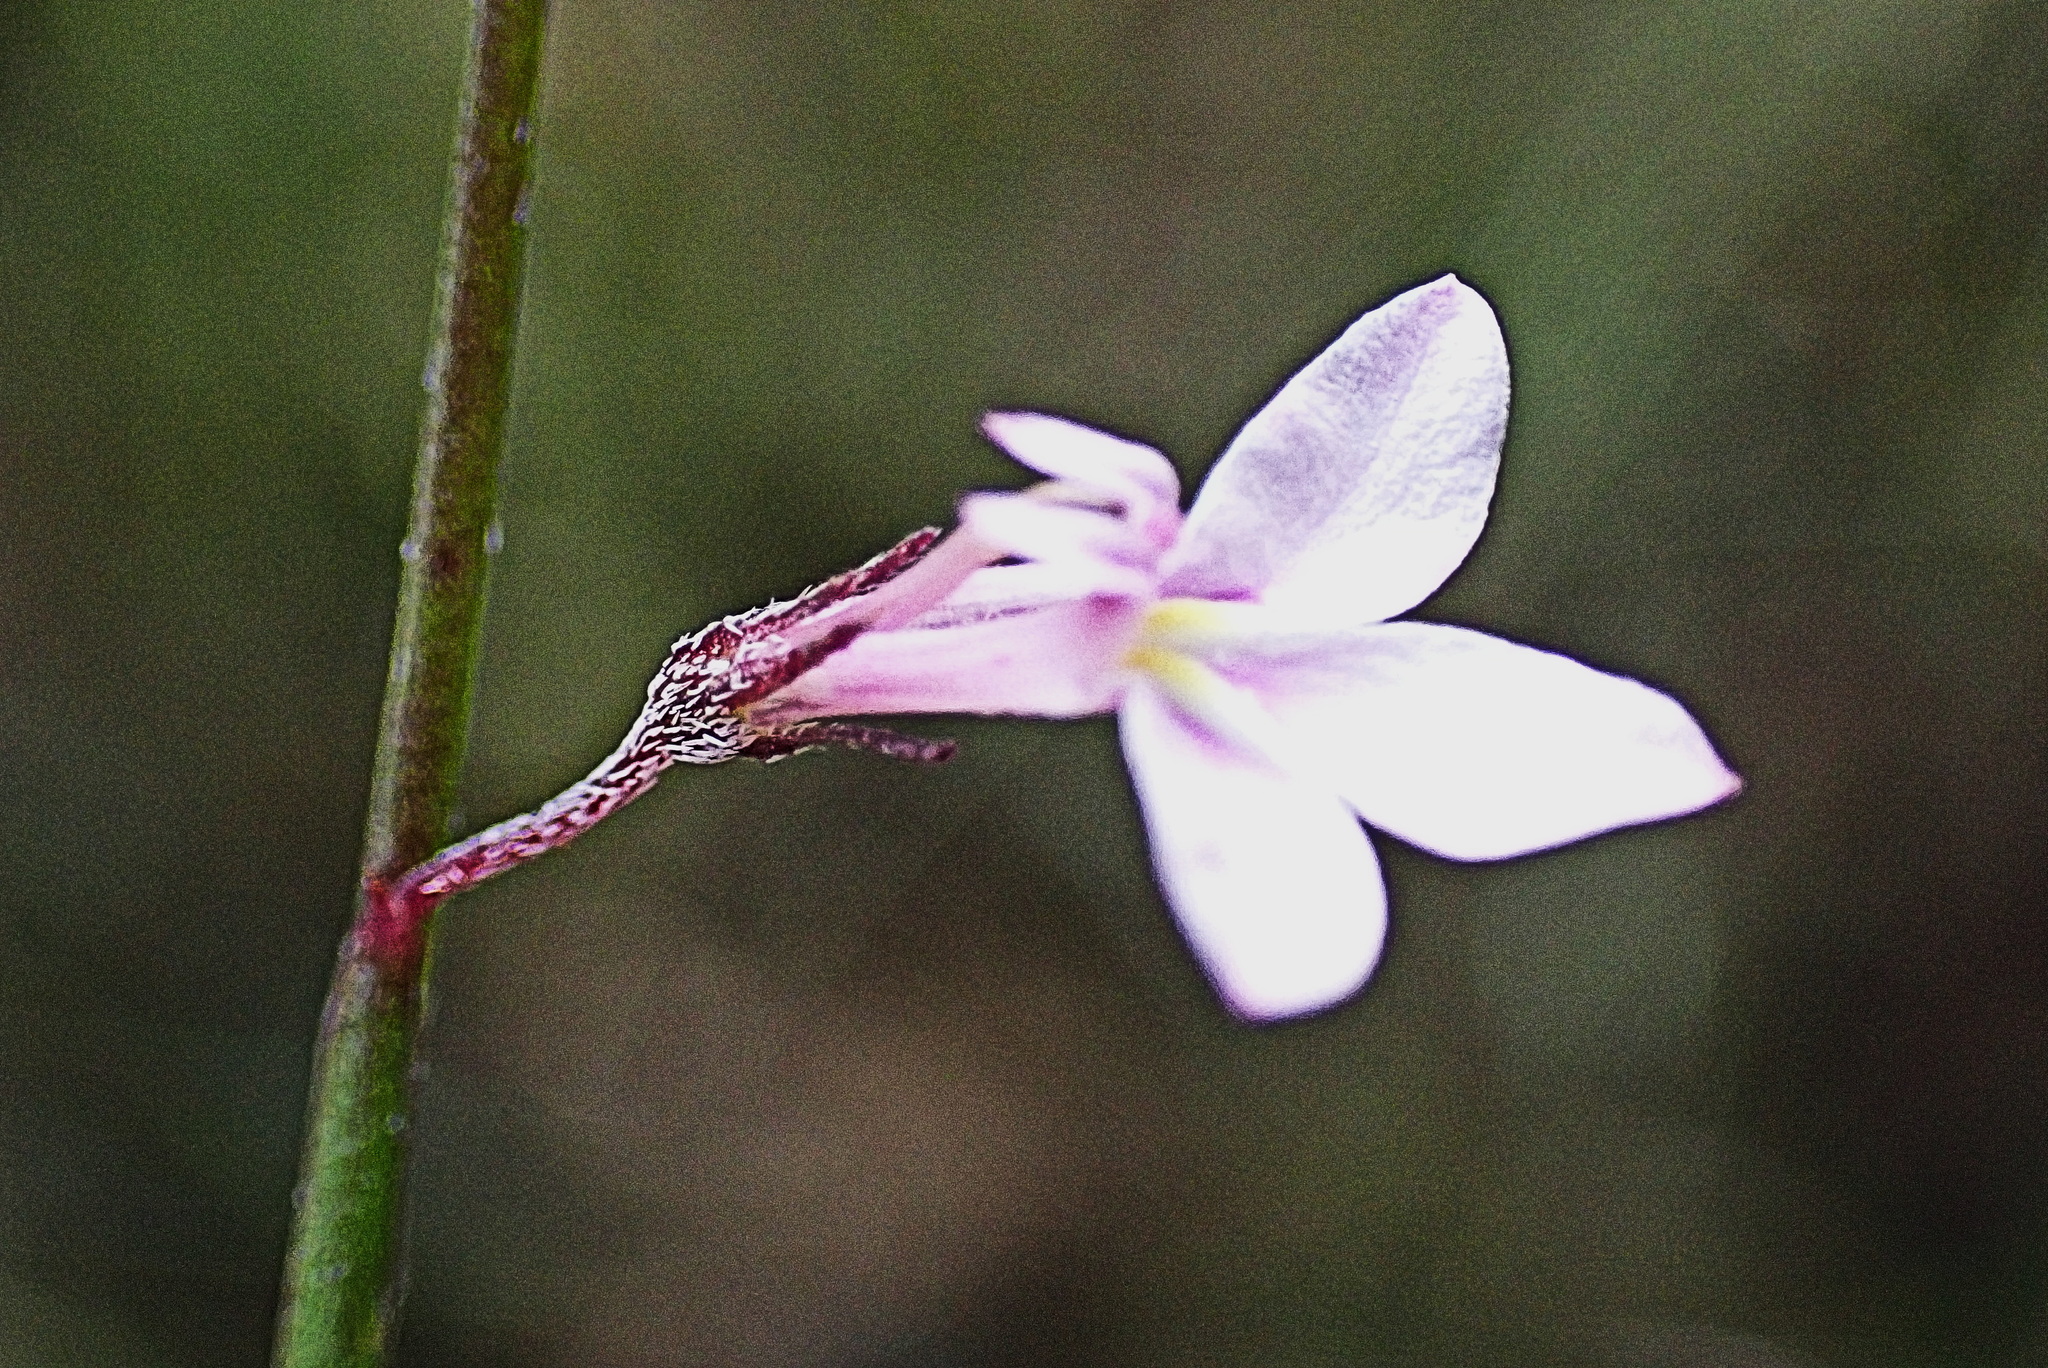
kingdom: Plantae
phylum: Tracheophyta
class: Magnoliopsida
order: Asterales
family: Campanulaceae
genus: Lobelia
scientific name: Lobelia patula
